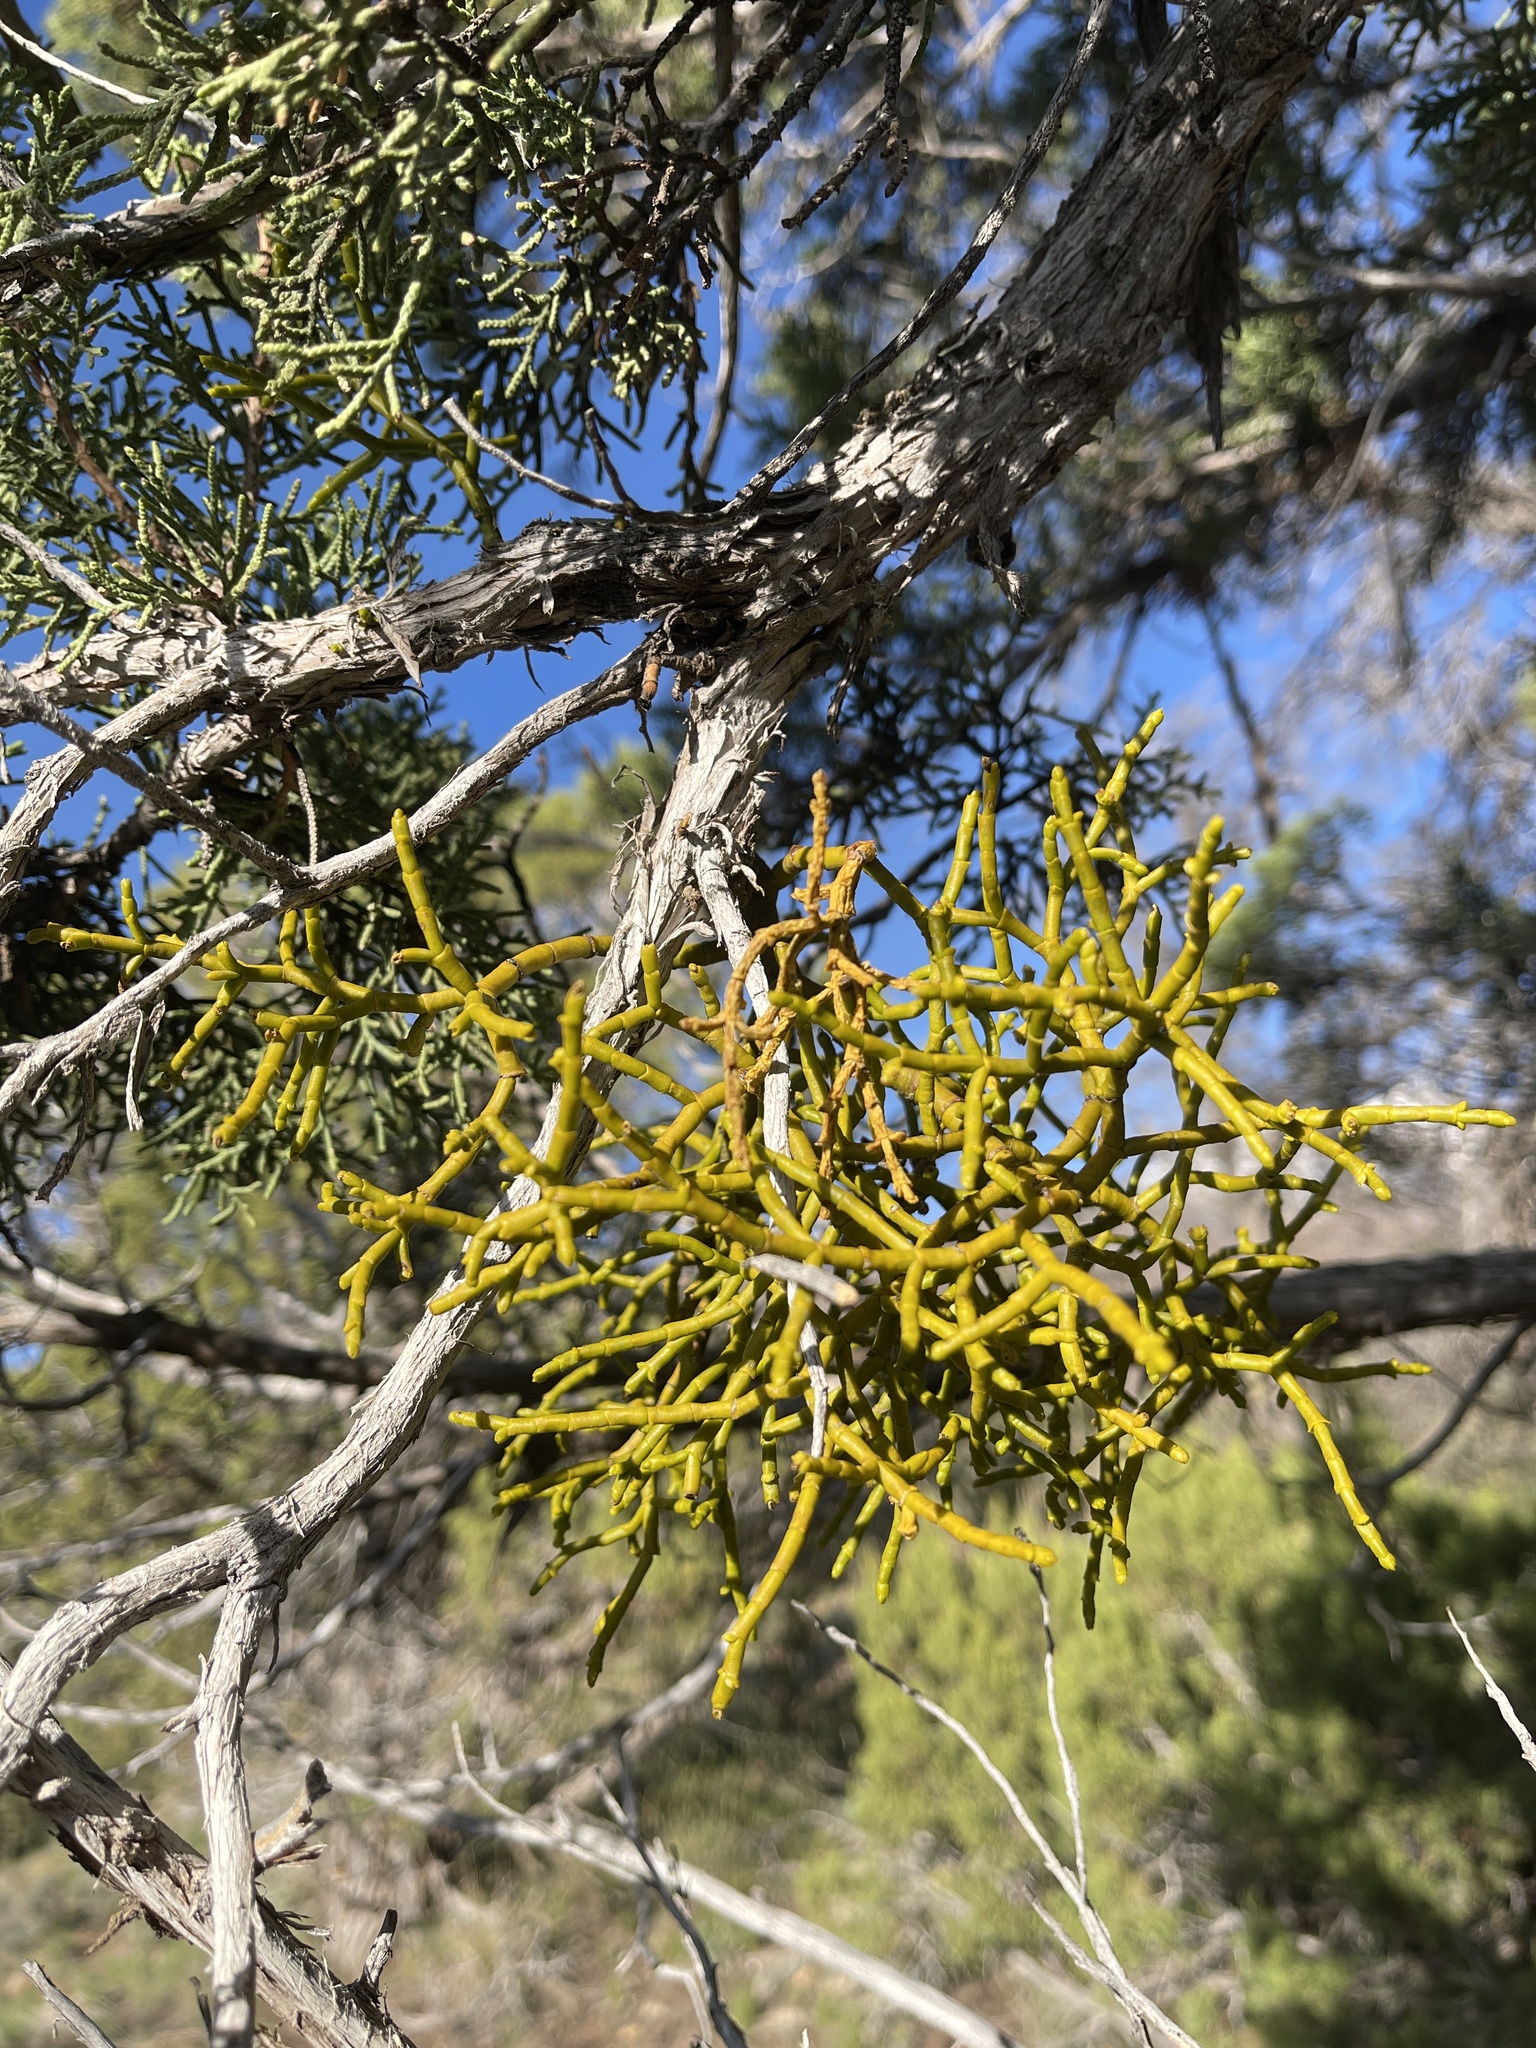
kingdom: Plantae
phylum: Tracheophyta
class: Magnoliopsida
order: Santalales
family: Viscaceae
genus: Phoradendron
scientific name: Phoradendron juniperinum
